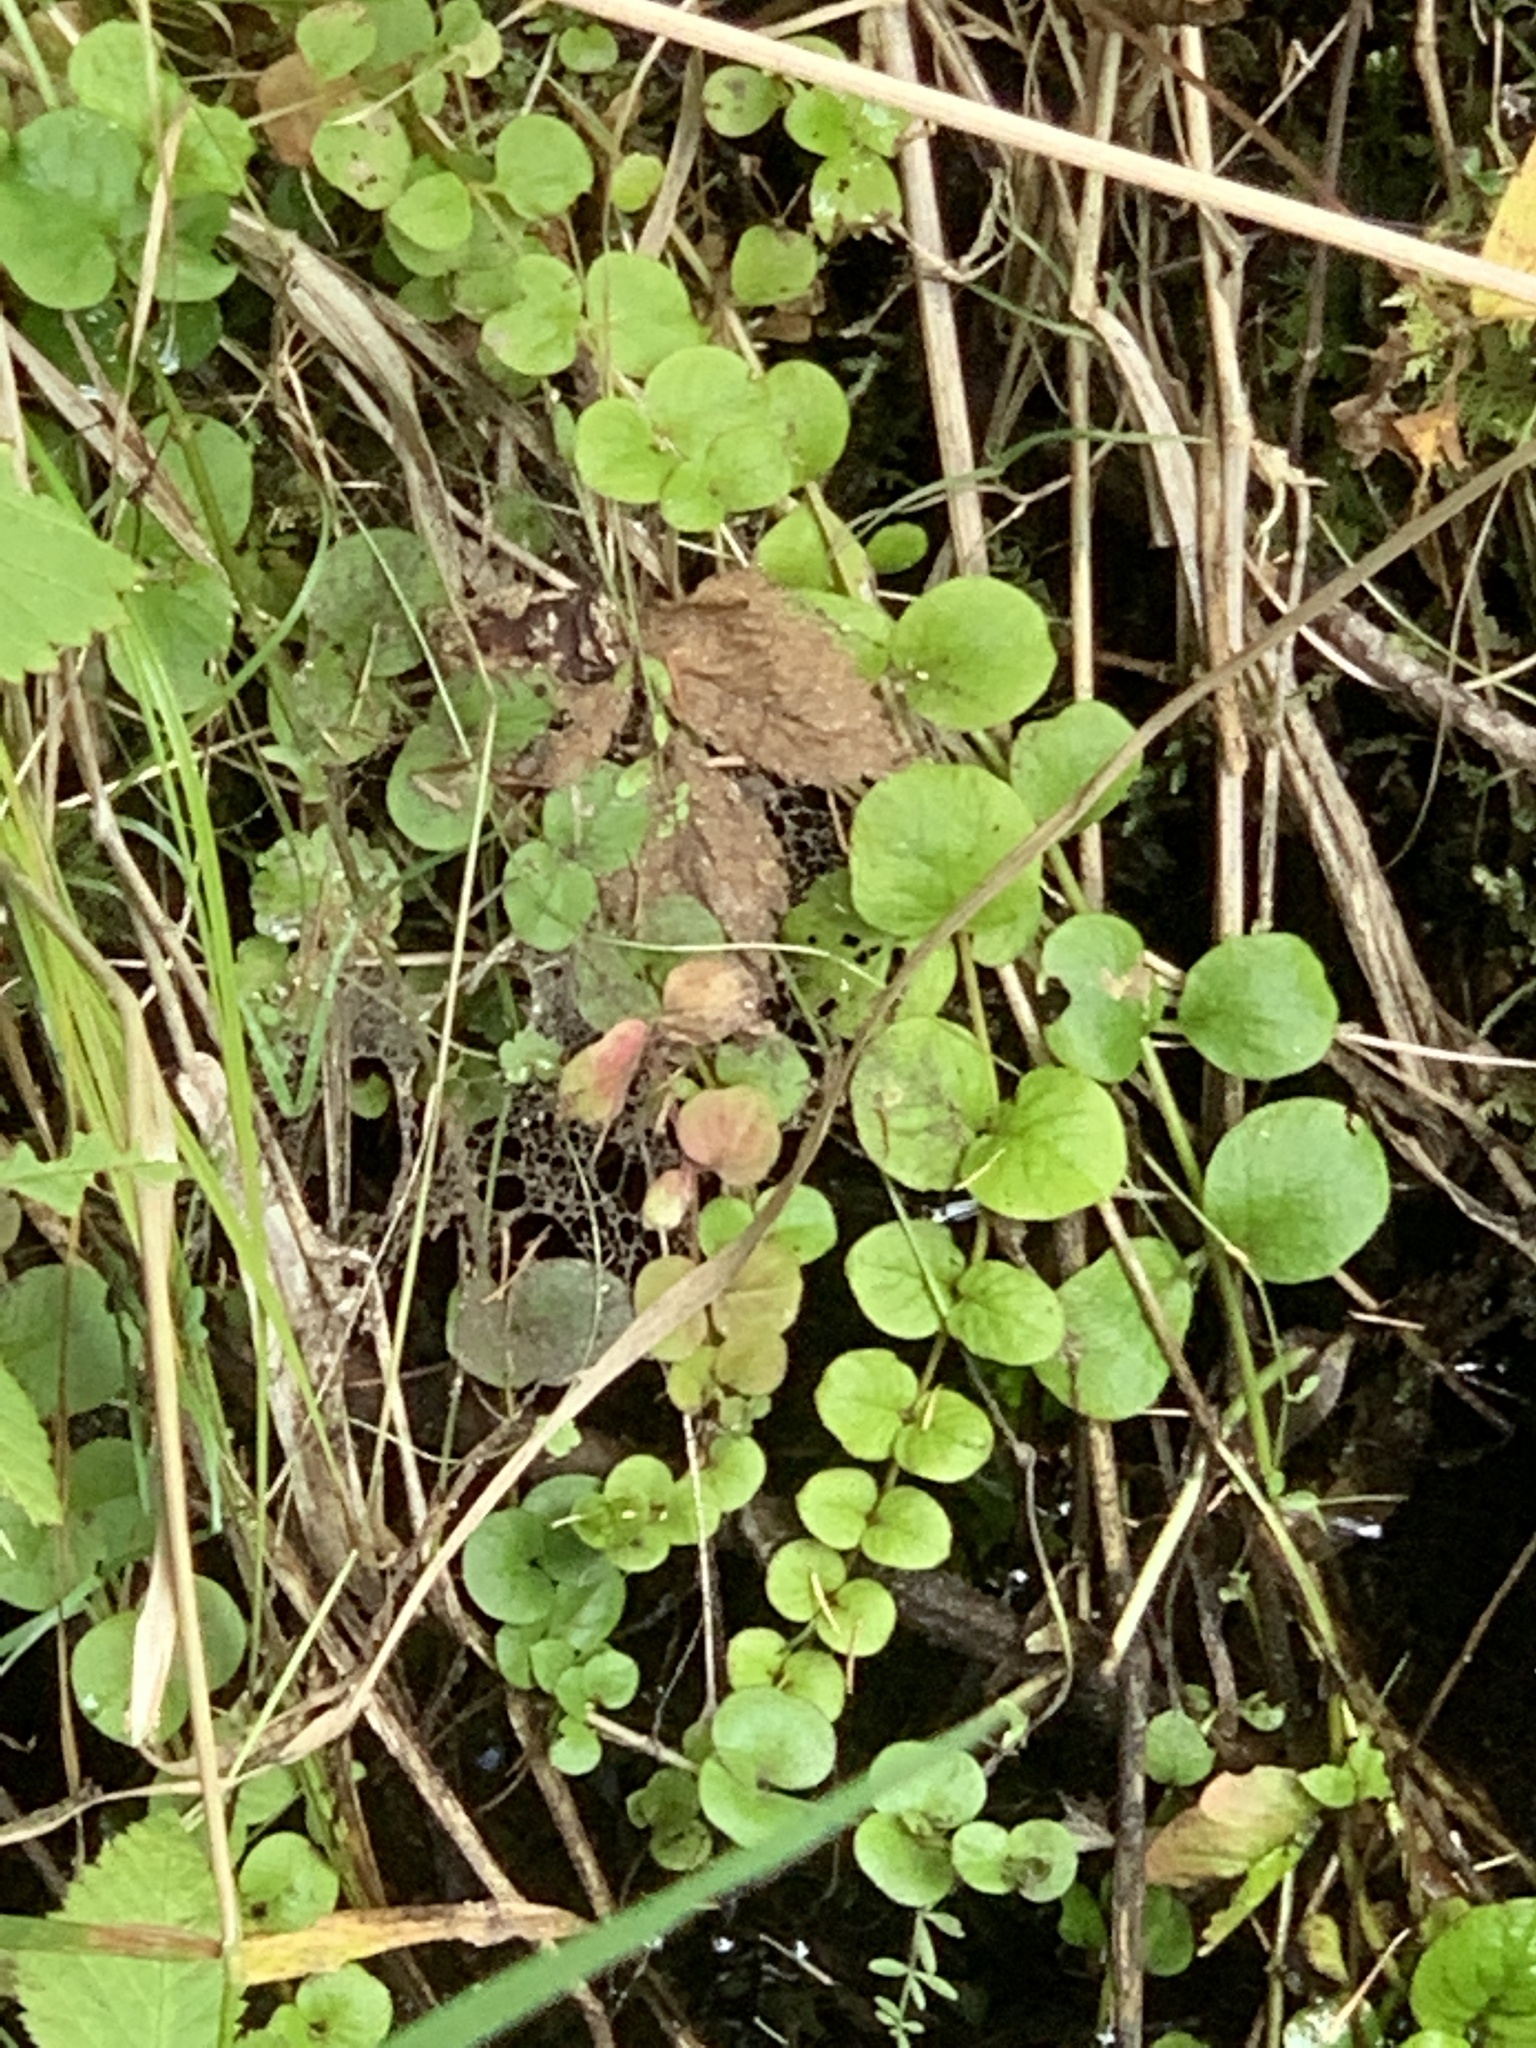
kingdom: Plantae
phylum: Tracheophyta
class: Magnoliopsida
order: Ericales
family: Primulaceae
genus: Lysimachia
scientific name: Lysimachia nummularia
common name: Moneywort
